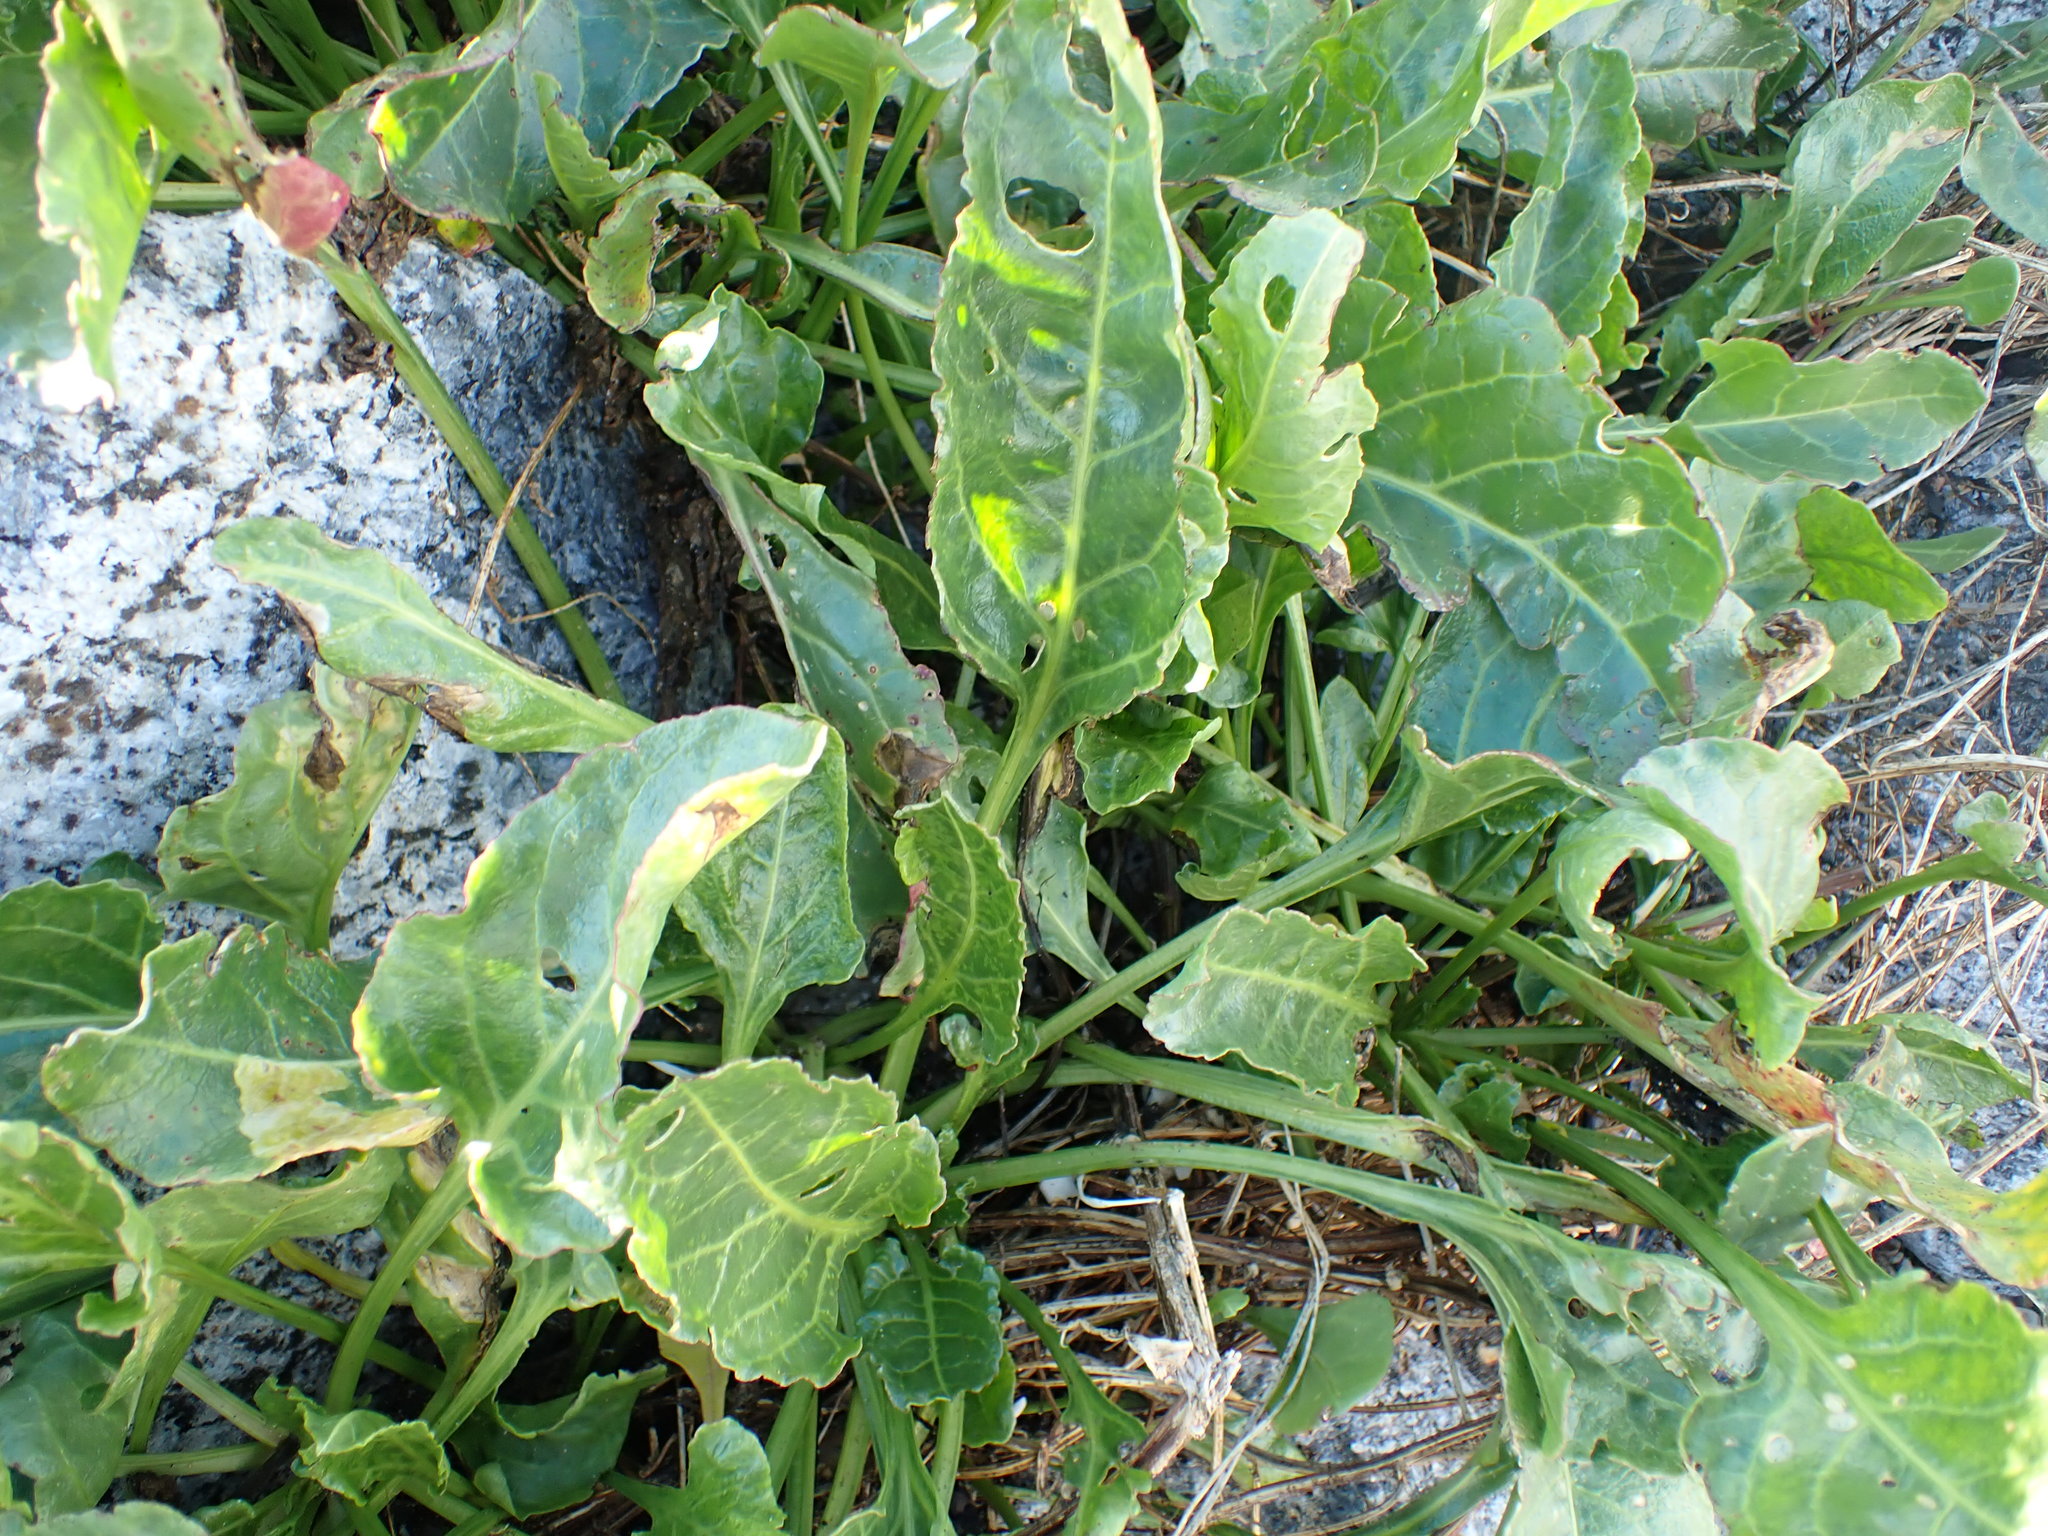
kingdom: Plantae
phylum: Tracheophyta
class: Magnoliopsida
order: Caryophyllales
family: Amaranthaceae
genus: Beta
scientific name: Beta vulgaris
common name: Beet
